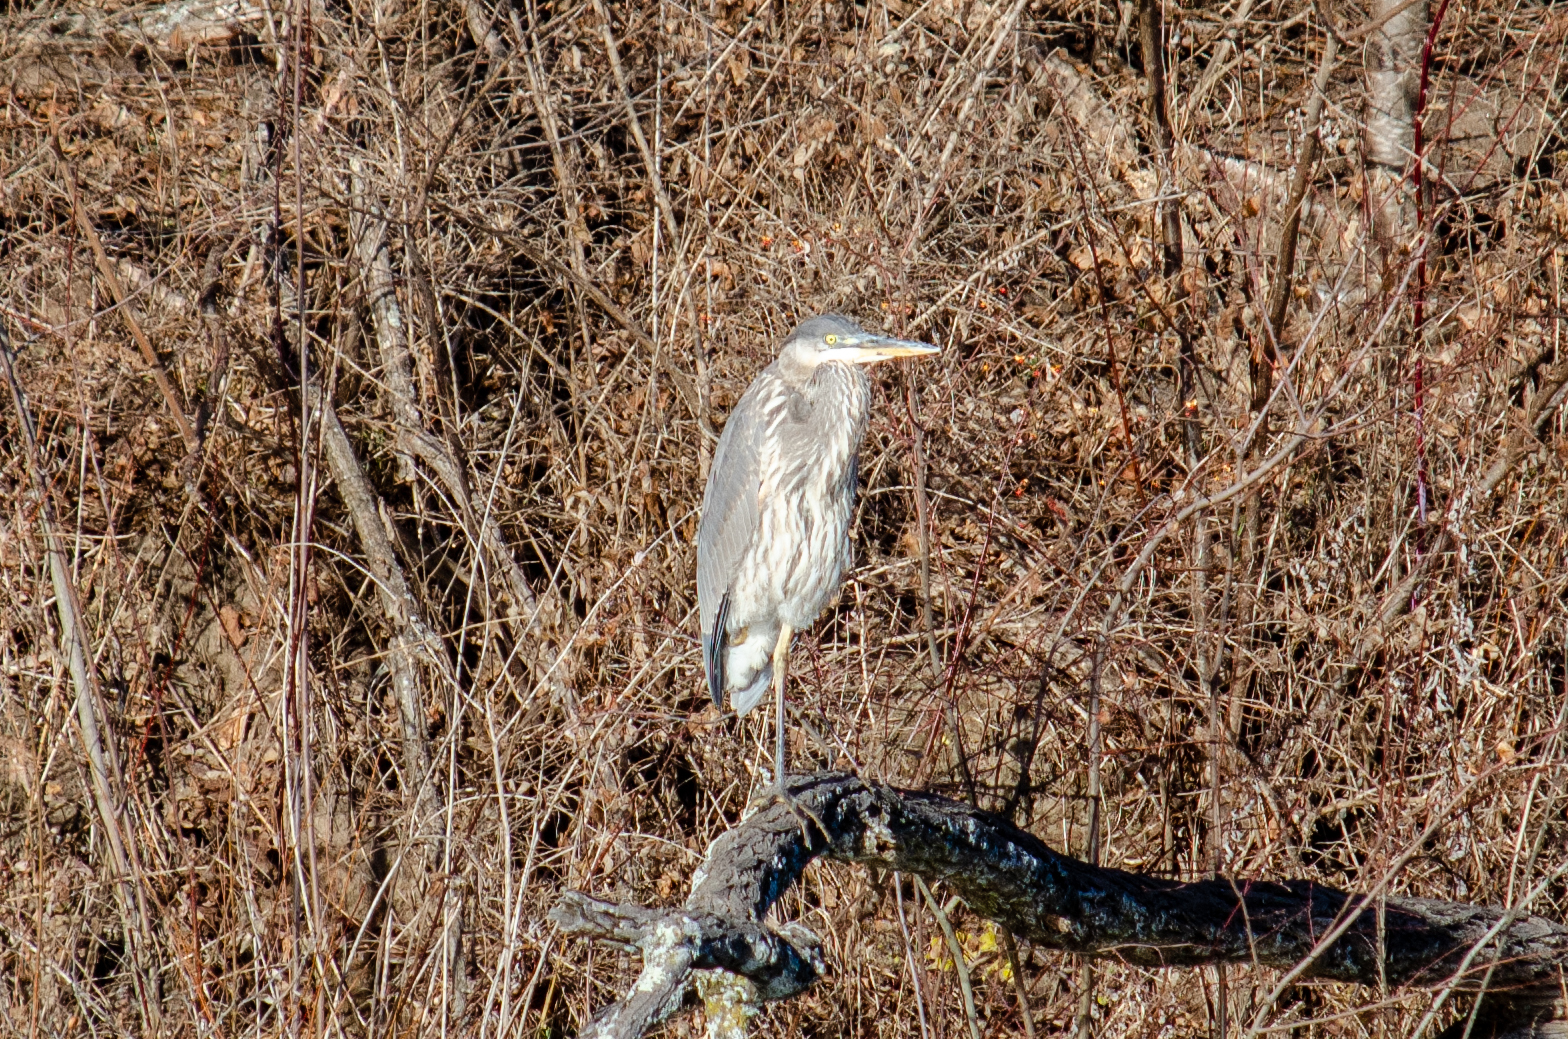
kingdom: Animalia
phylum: Chordata
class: Aves
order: Pelecaniformes
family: Ardeidae
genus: Ardea
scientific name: Ardea herodias
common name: Great blue heron
